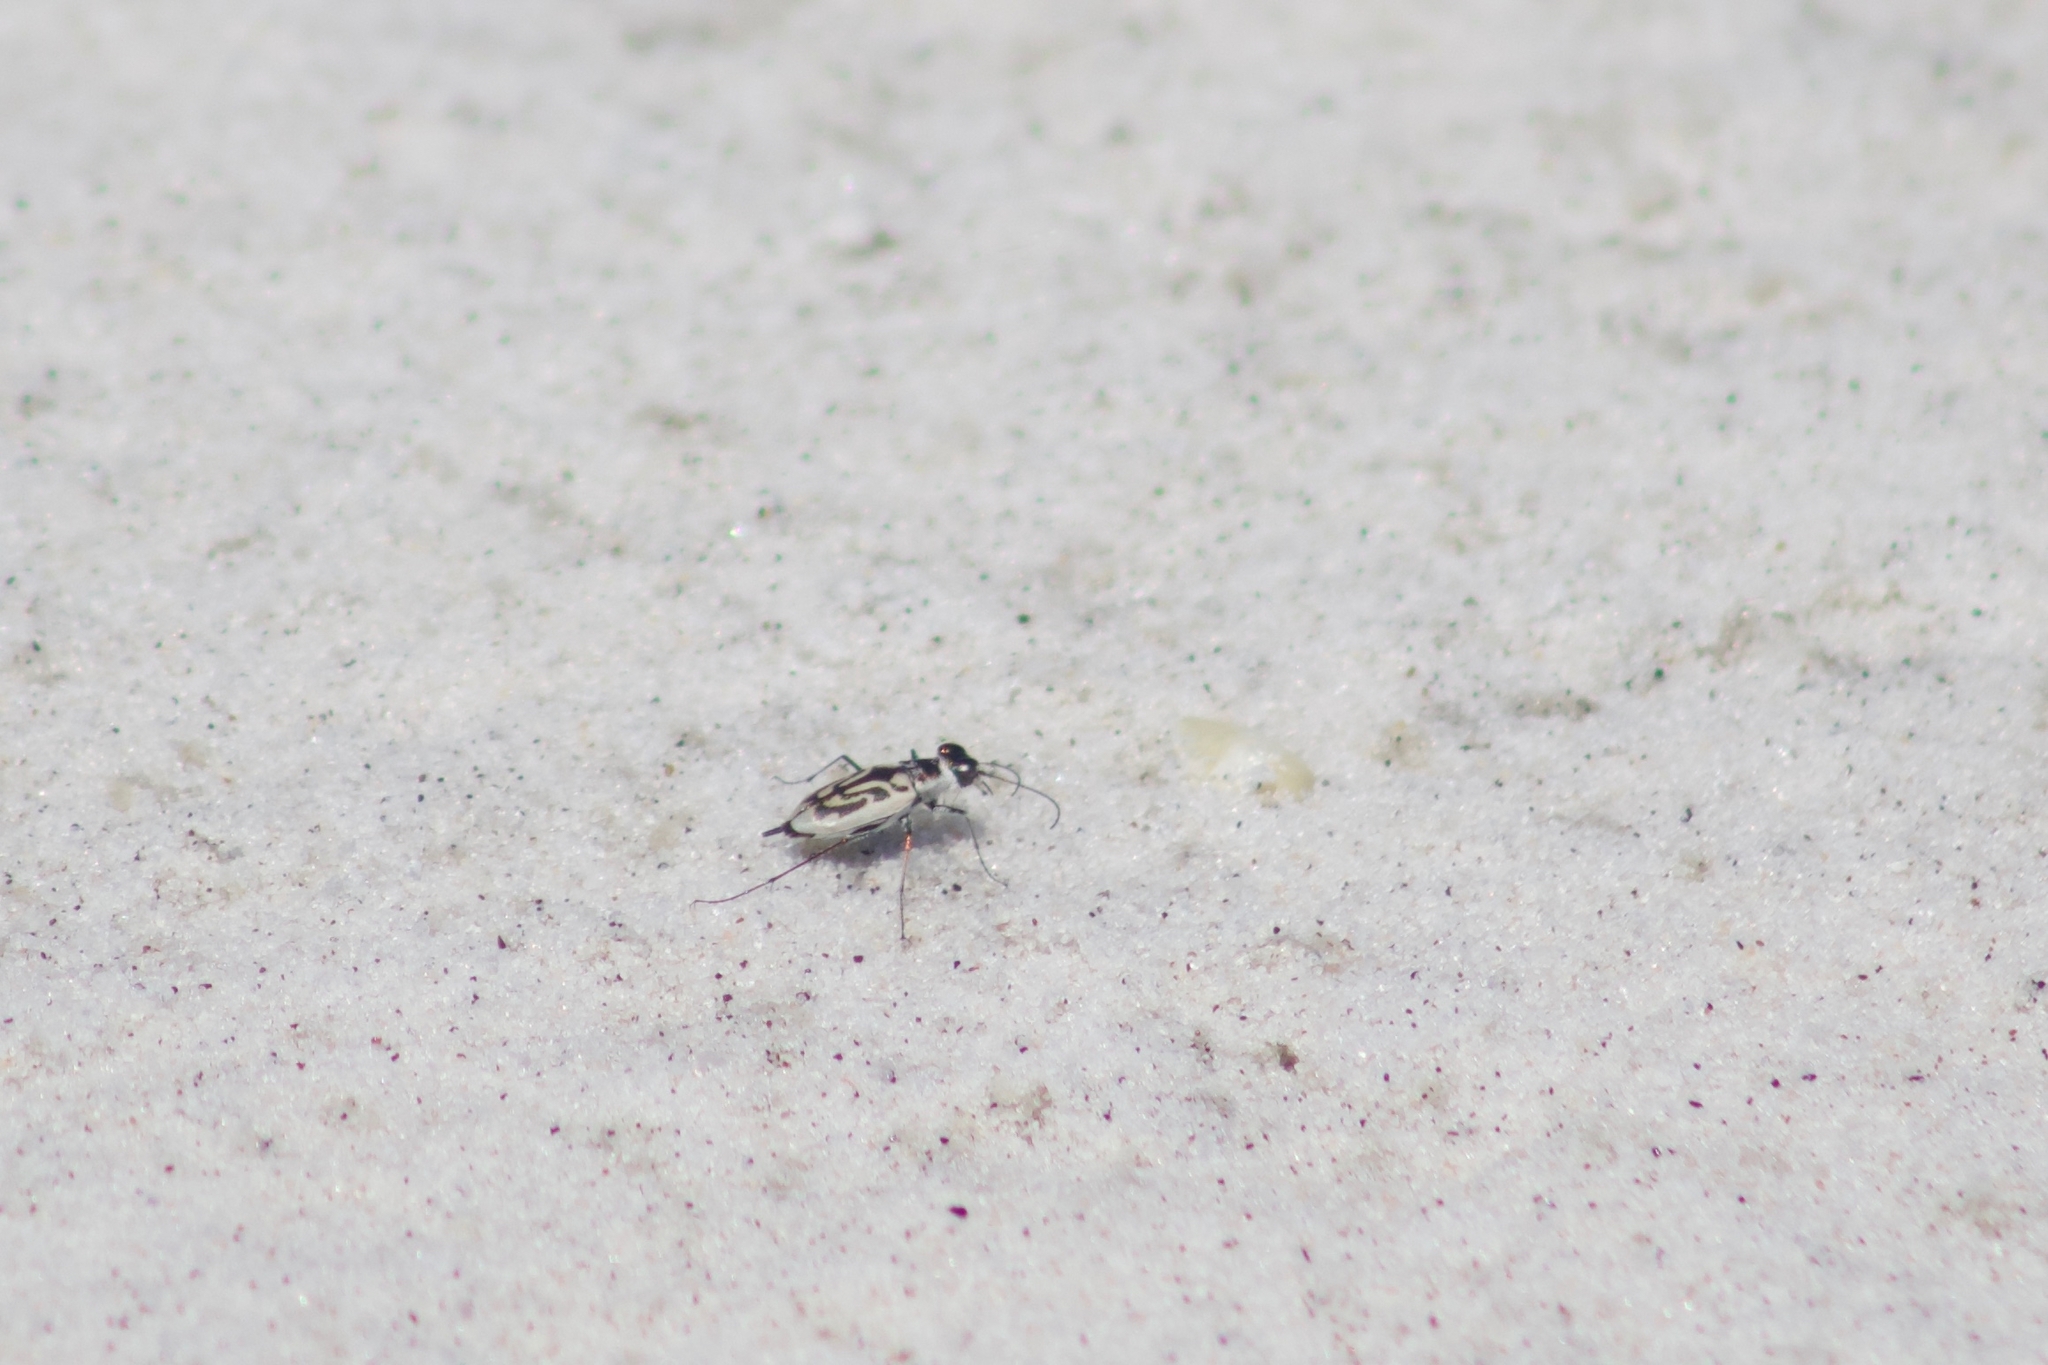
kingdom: Animalia
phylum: Arthropoda
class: Insecta
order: Coleoptera
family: Carabidae
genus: Habroscelimorpha
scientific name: Habroscelimorpha dorsalis
